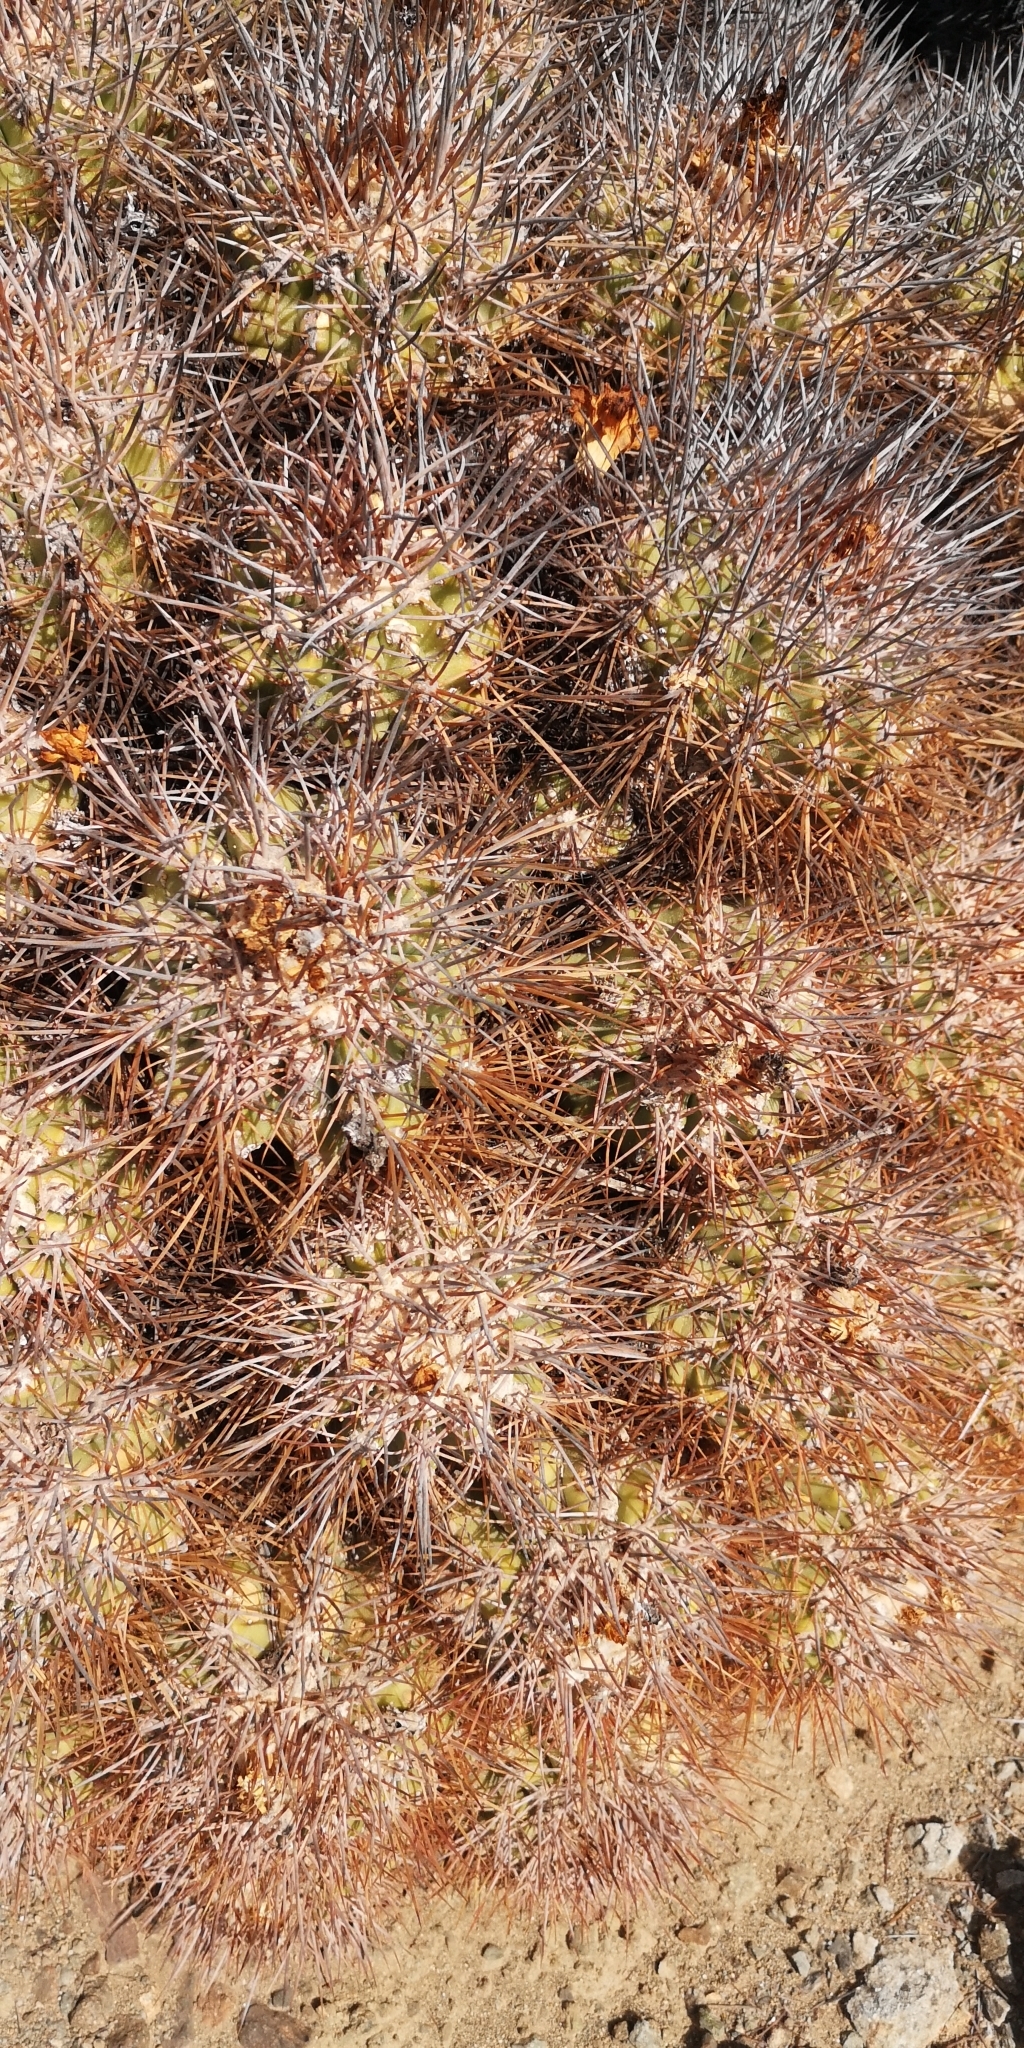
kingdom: Plantae
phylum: Tracheophyta
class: Magnoliopsida
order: Caryophyllales
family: Cactaceae
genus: Copiapoa
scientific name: Copiapoa coquimbana
